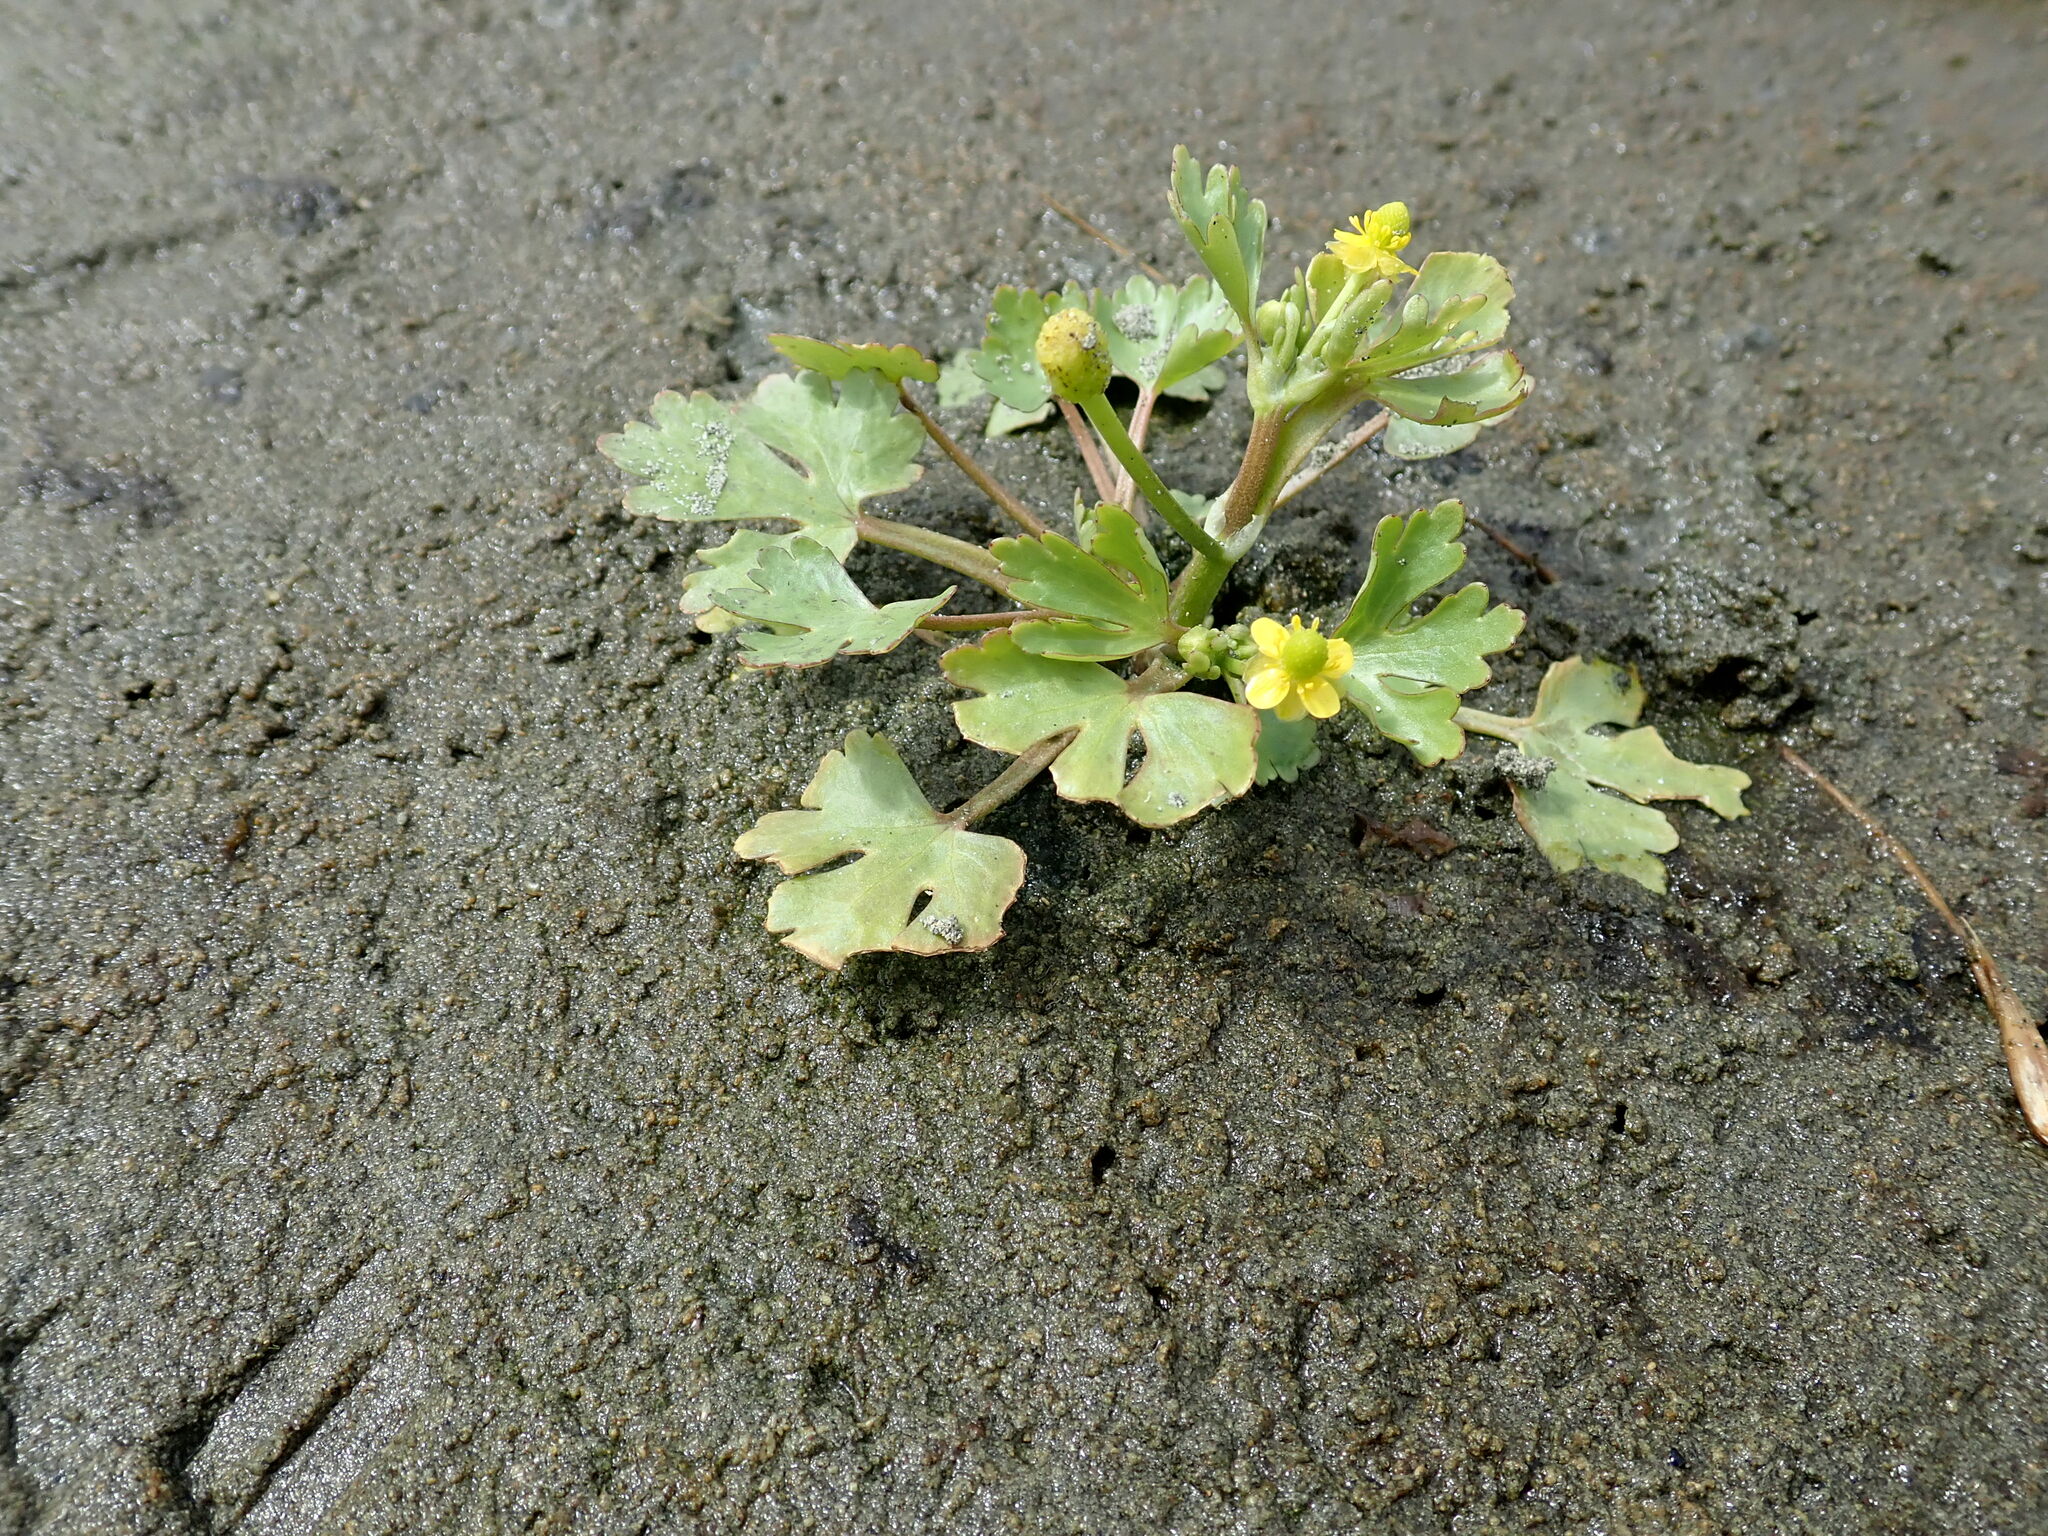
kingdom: Plantae
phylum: Tracheophyta
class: Magnoliopsida
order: Ranunculales
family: Ranunculaceae
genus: Ranunculus
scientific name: Ranunculus sceleratus
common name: Celery-leaved buttercup
